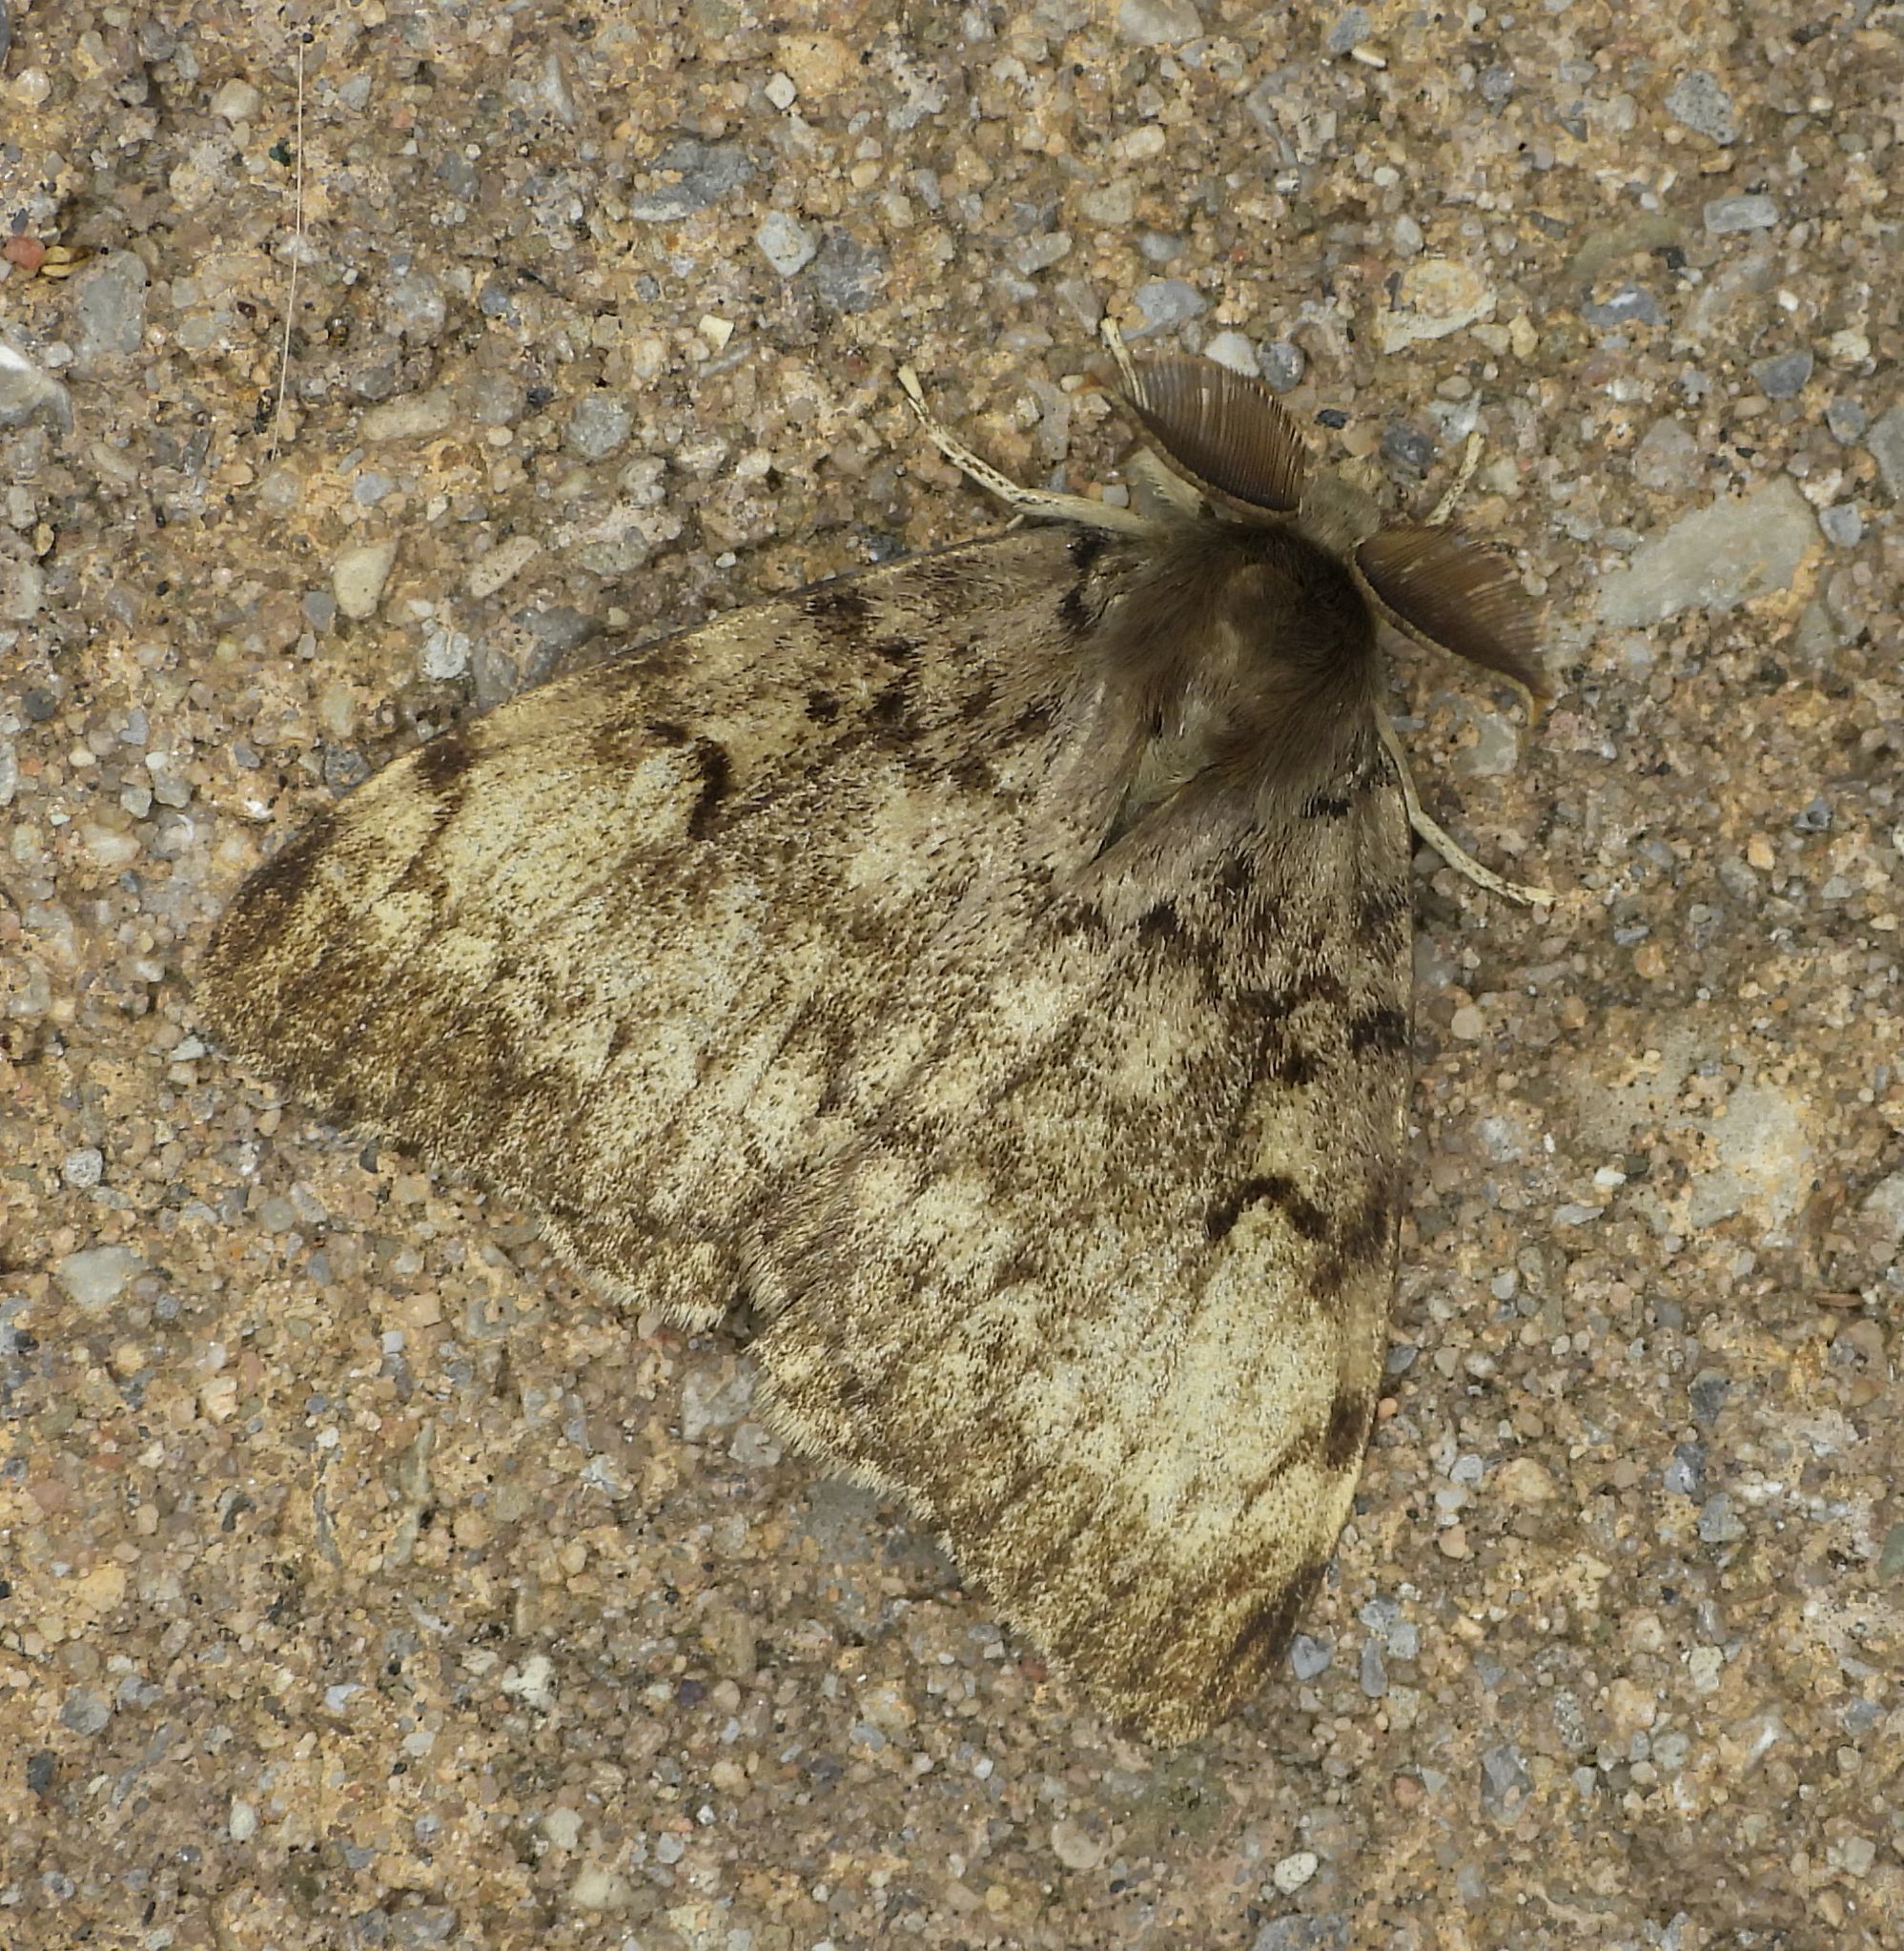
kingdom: Animalia
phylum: Arthropoda
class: Insecta
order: Lepidoptera
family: Erebidae
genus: Lymantria
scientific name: Lymantria dispar
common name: Gypsy moth
